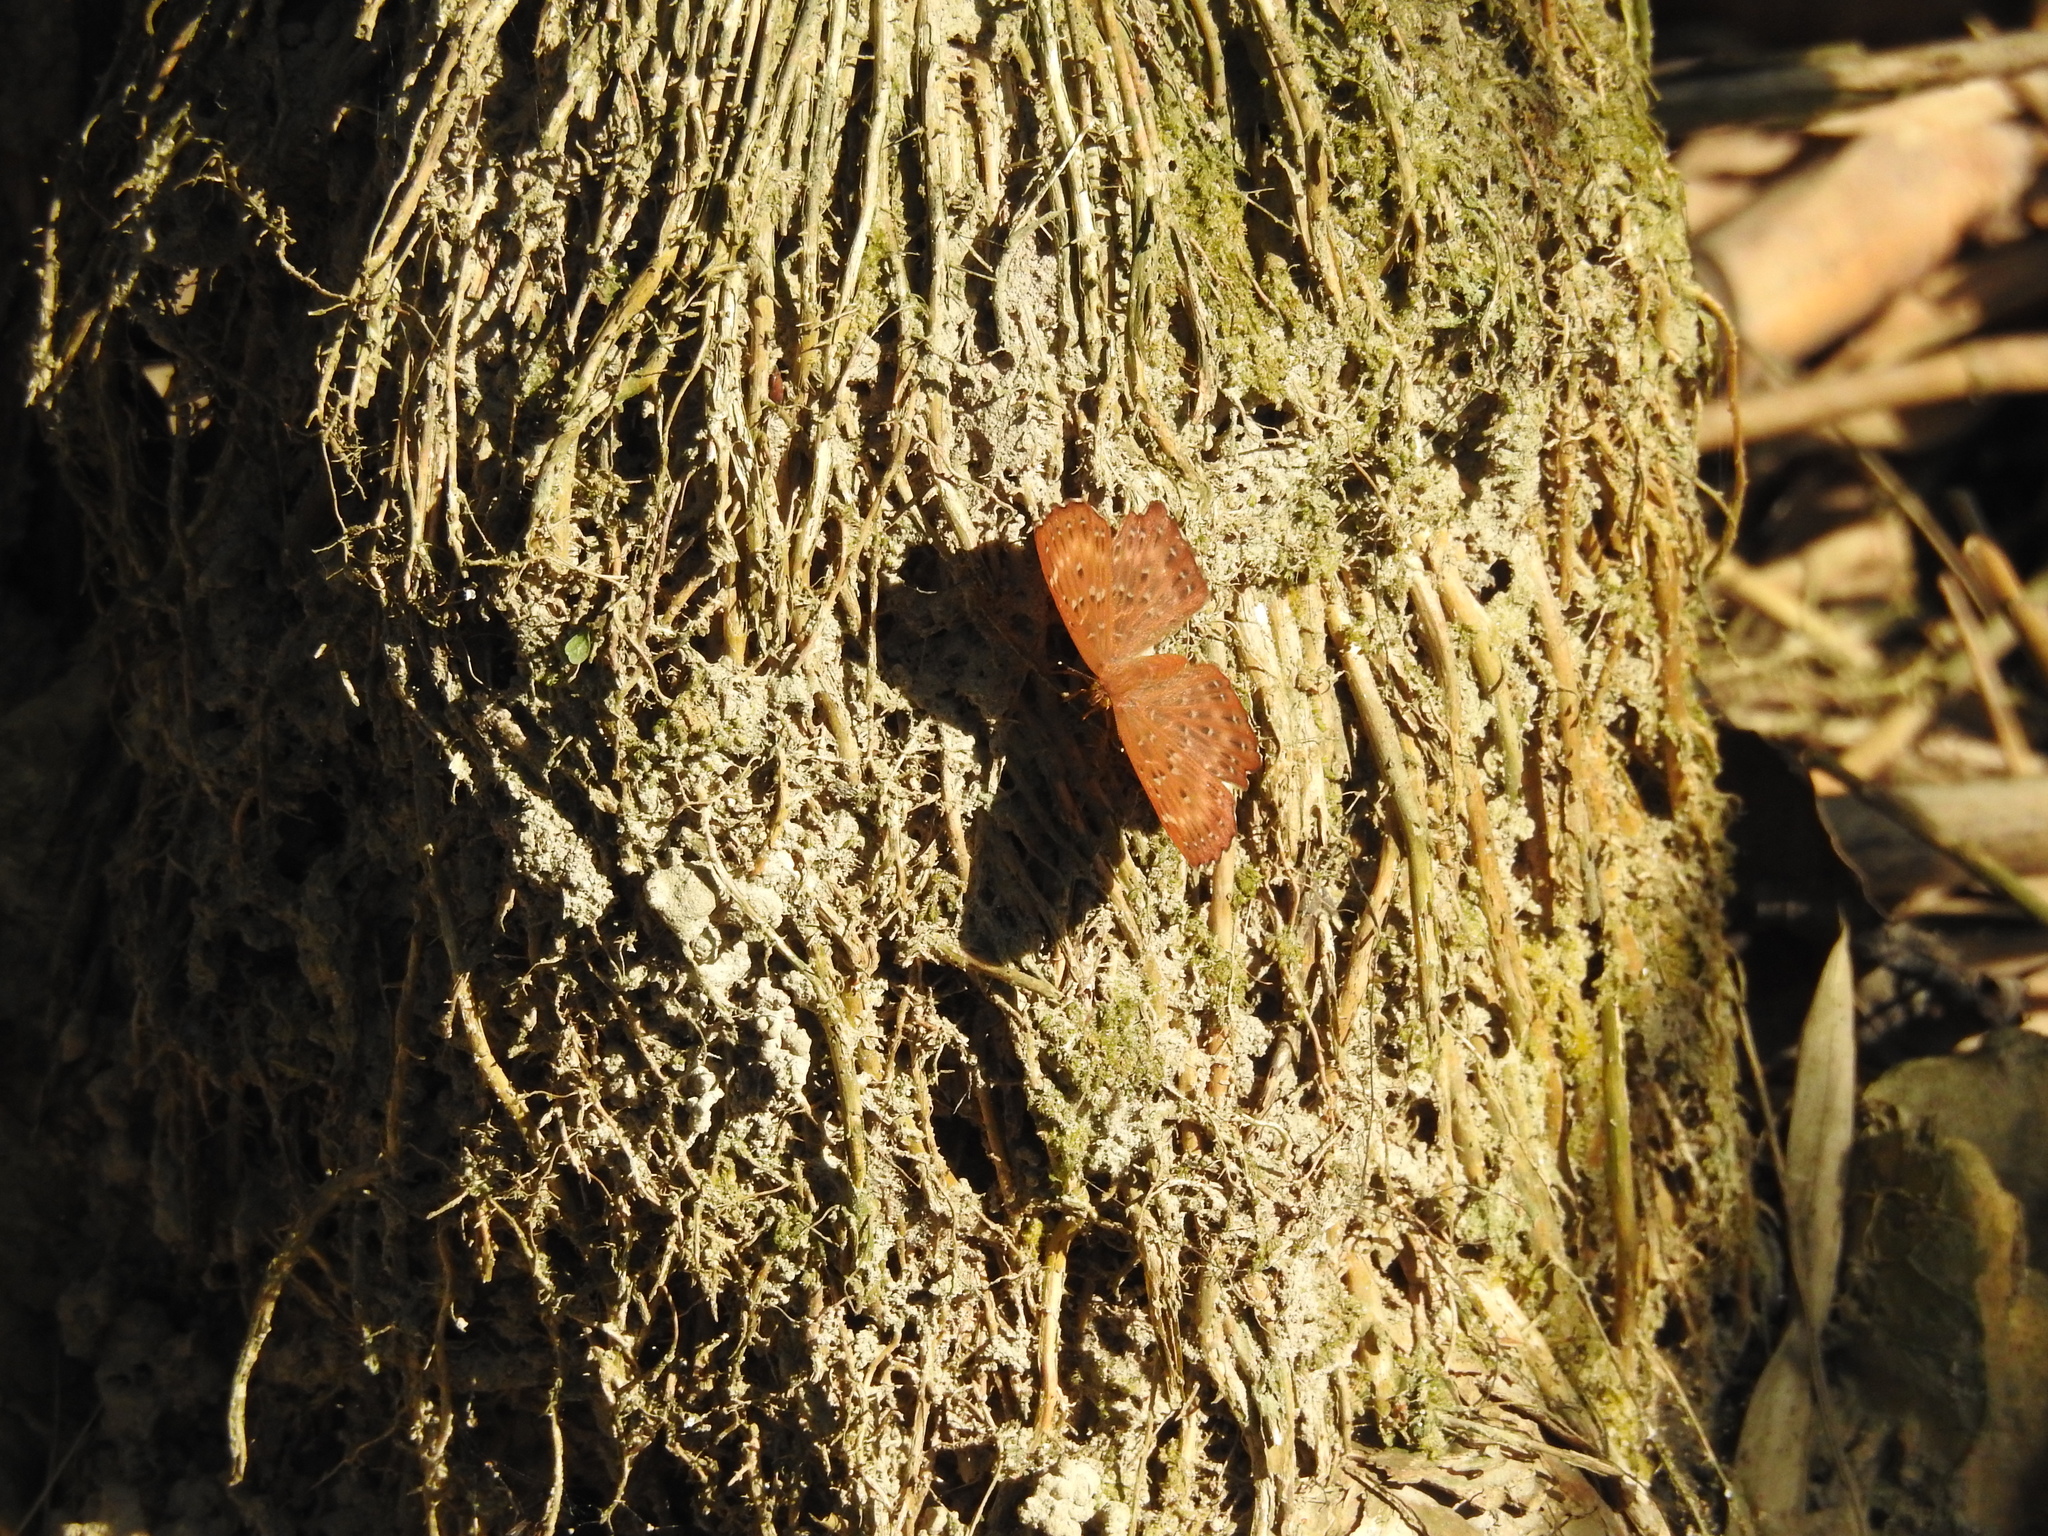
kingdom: Animalia
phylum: Arthropoda
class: Insecta
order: Lepidoptera
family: Riodinidae
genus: Zemeros
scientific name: Zemeros flegyas
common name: Punchinello
